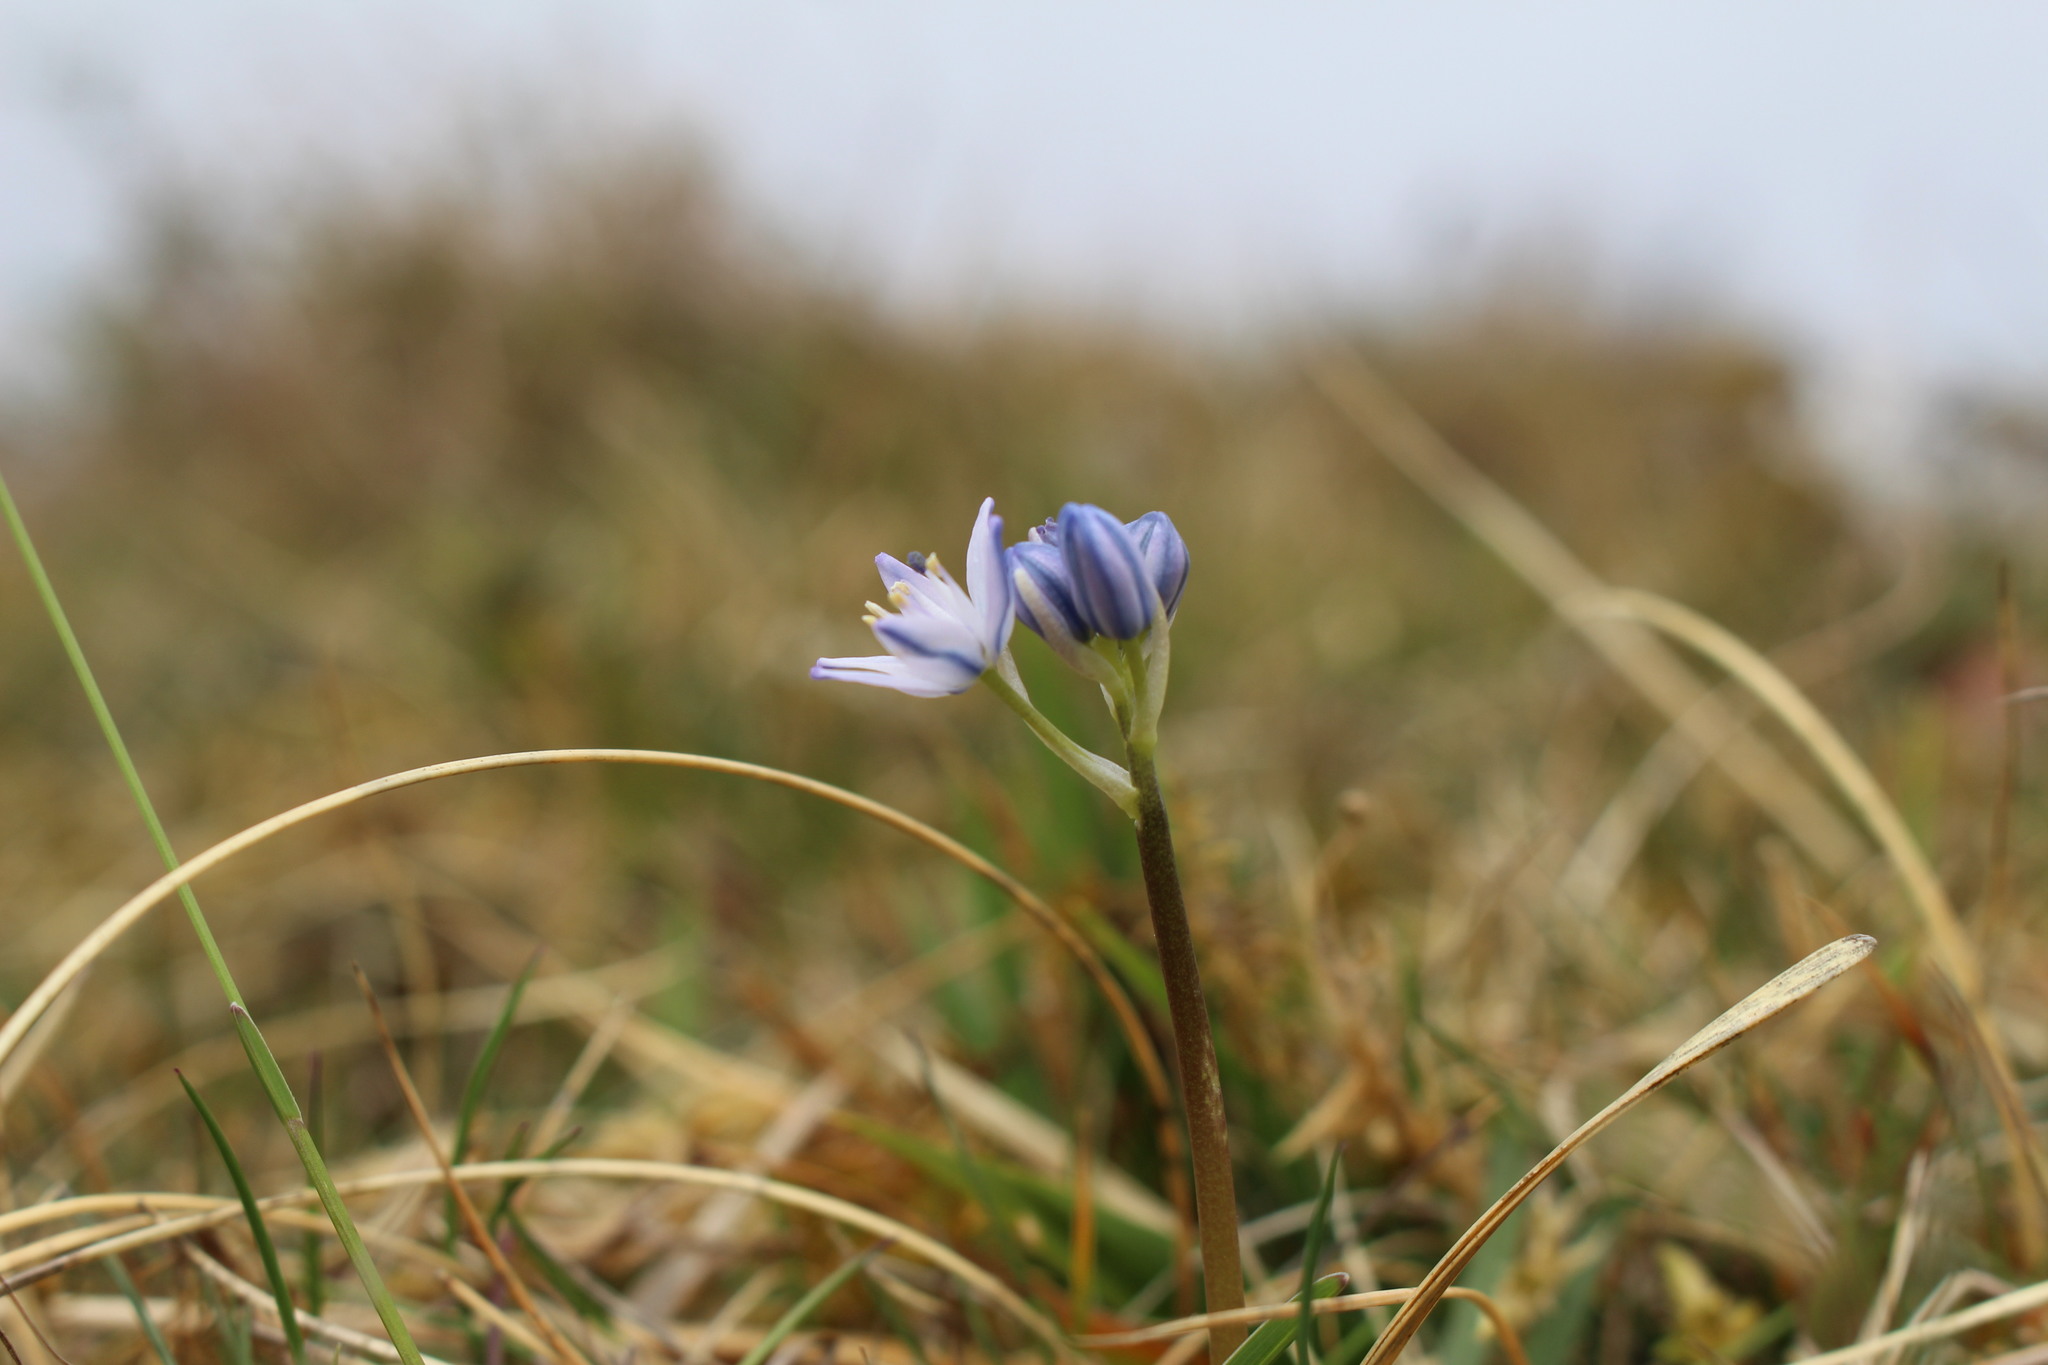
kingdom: Plantae
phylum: Tracheophyta
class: Liliopsida
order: Asparagales
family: Asparagaceae
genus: Scilla
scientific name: Scilla verna
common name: Spring squill
